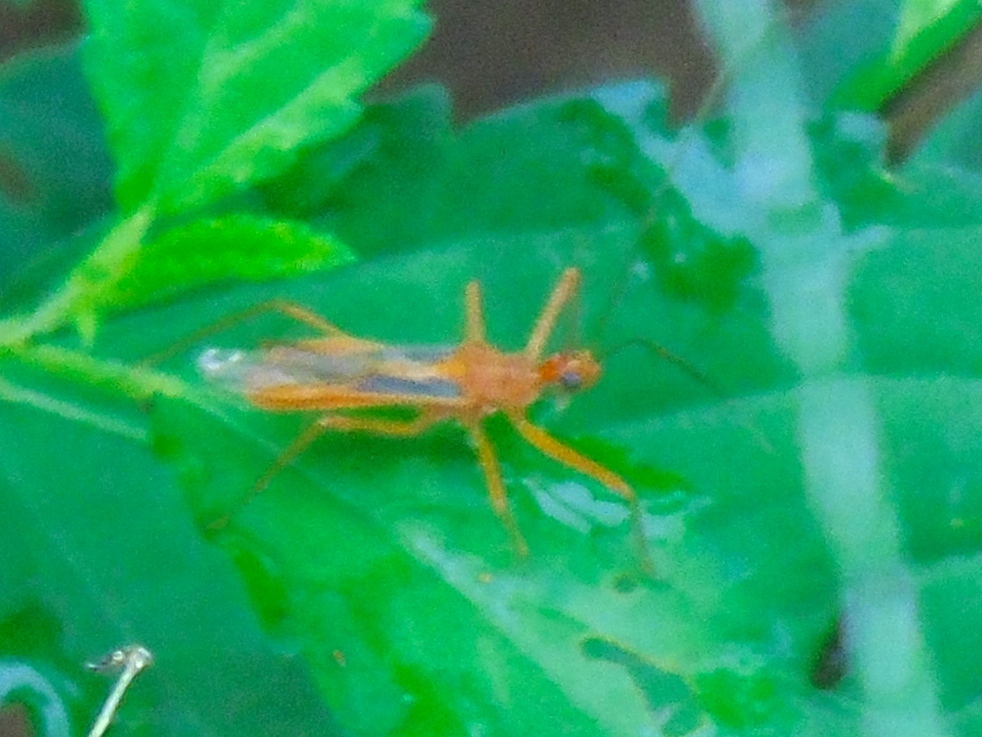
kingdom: Animalia
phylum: Arthropoda
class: Insecta
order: Hemiptera
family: Reduviidae
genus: Repipta
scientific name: Repipta
